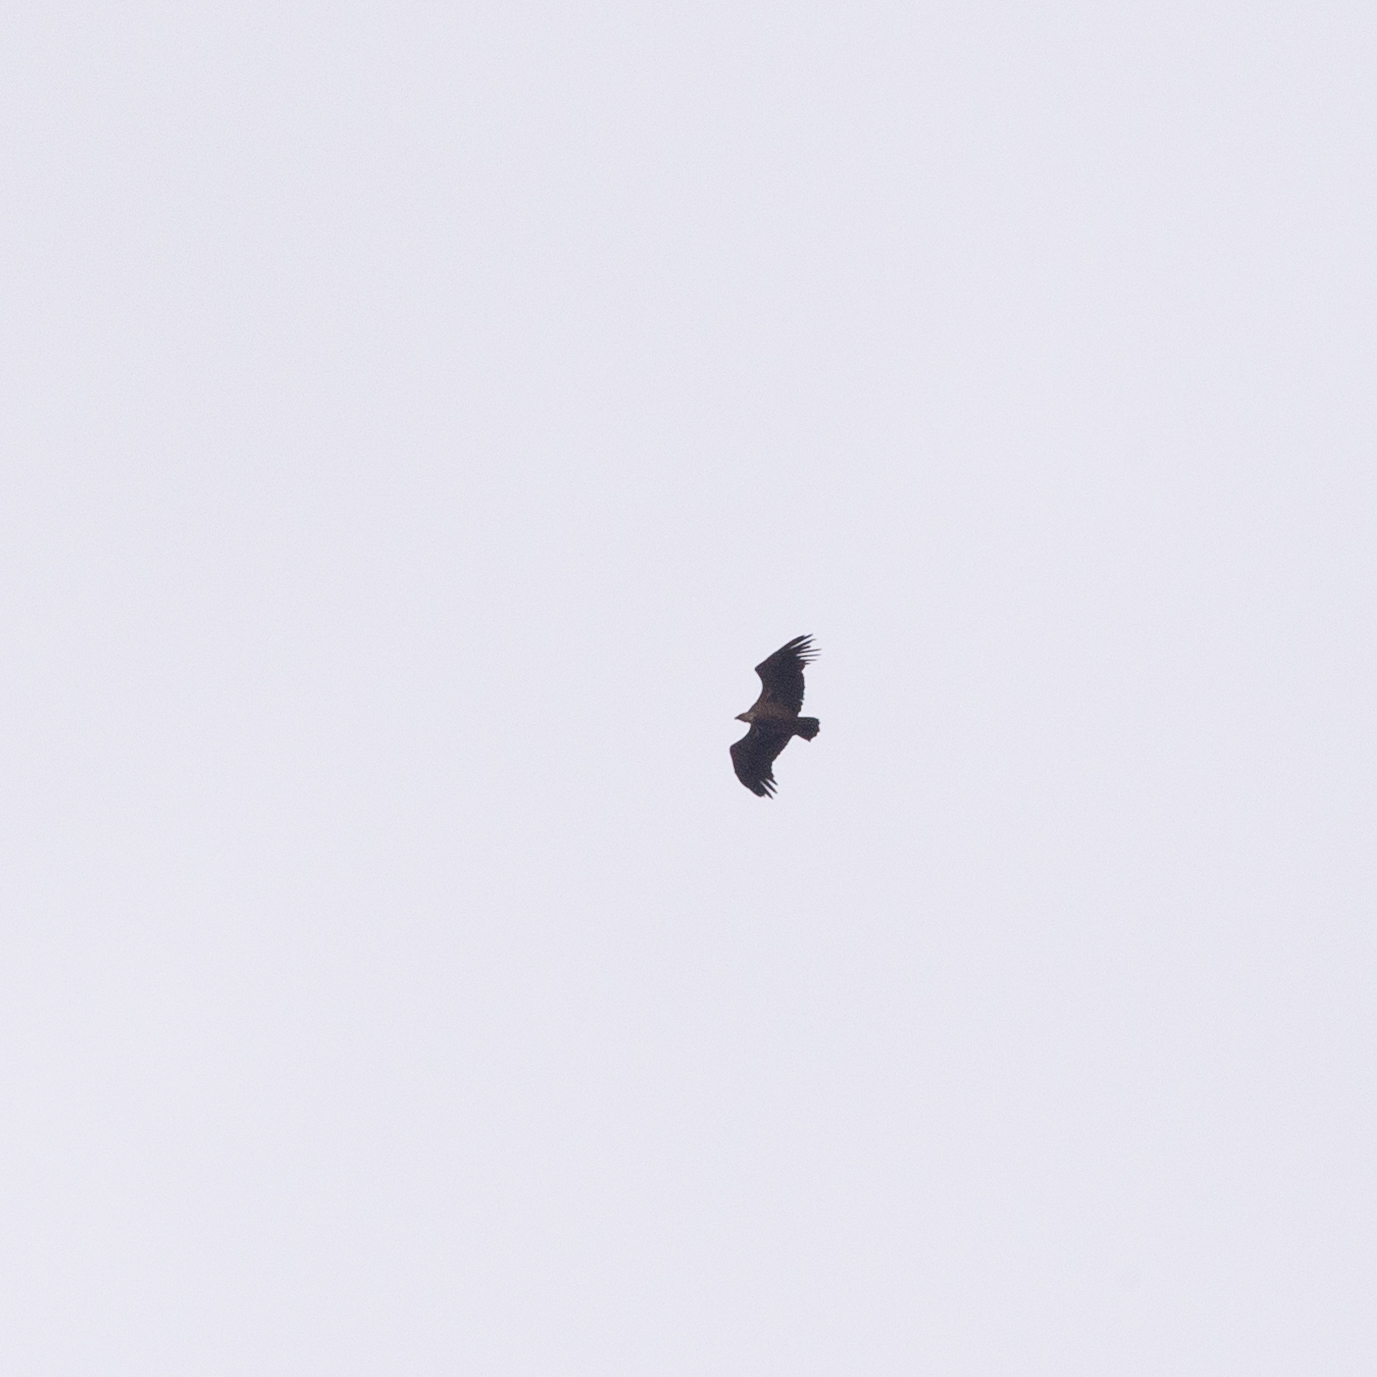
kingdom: Animalia
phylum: Chordata
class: Aves
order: Accipitriformes
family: Accipitridae
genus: Gyps
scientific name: Gyps fulvus
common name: Griffon vulture
